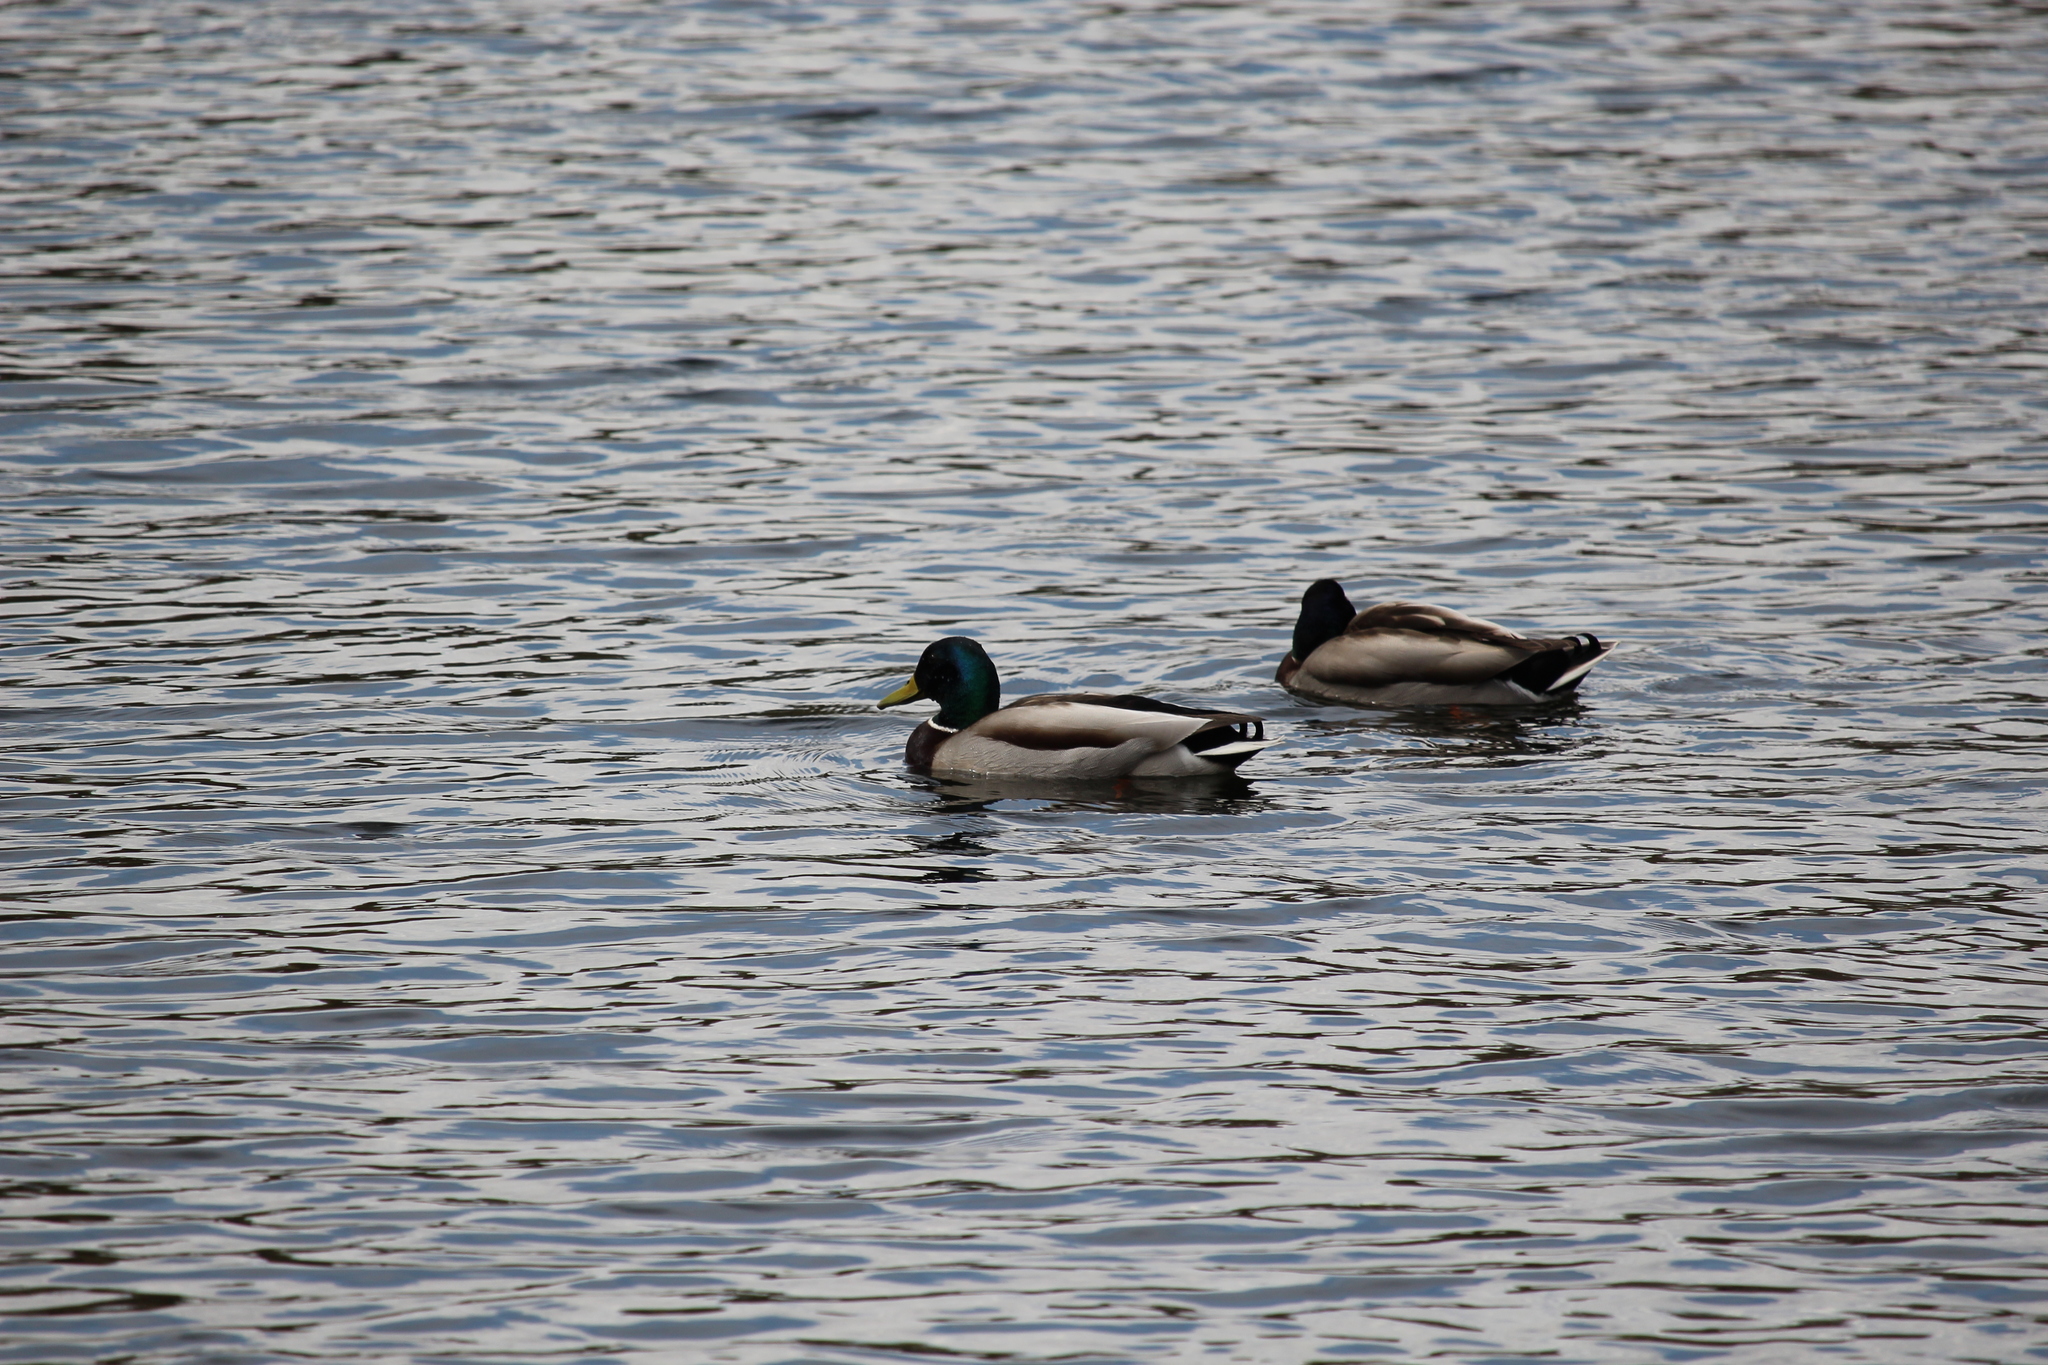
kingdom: Animalia
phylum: Chordata
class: Aves
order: Anseriformes
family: Anatidae
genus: Anas
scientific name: Anas platyrhynchos
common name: Mallard
